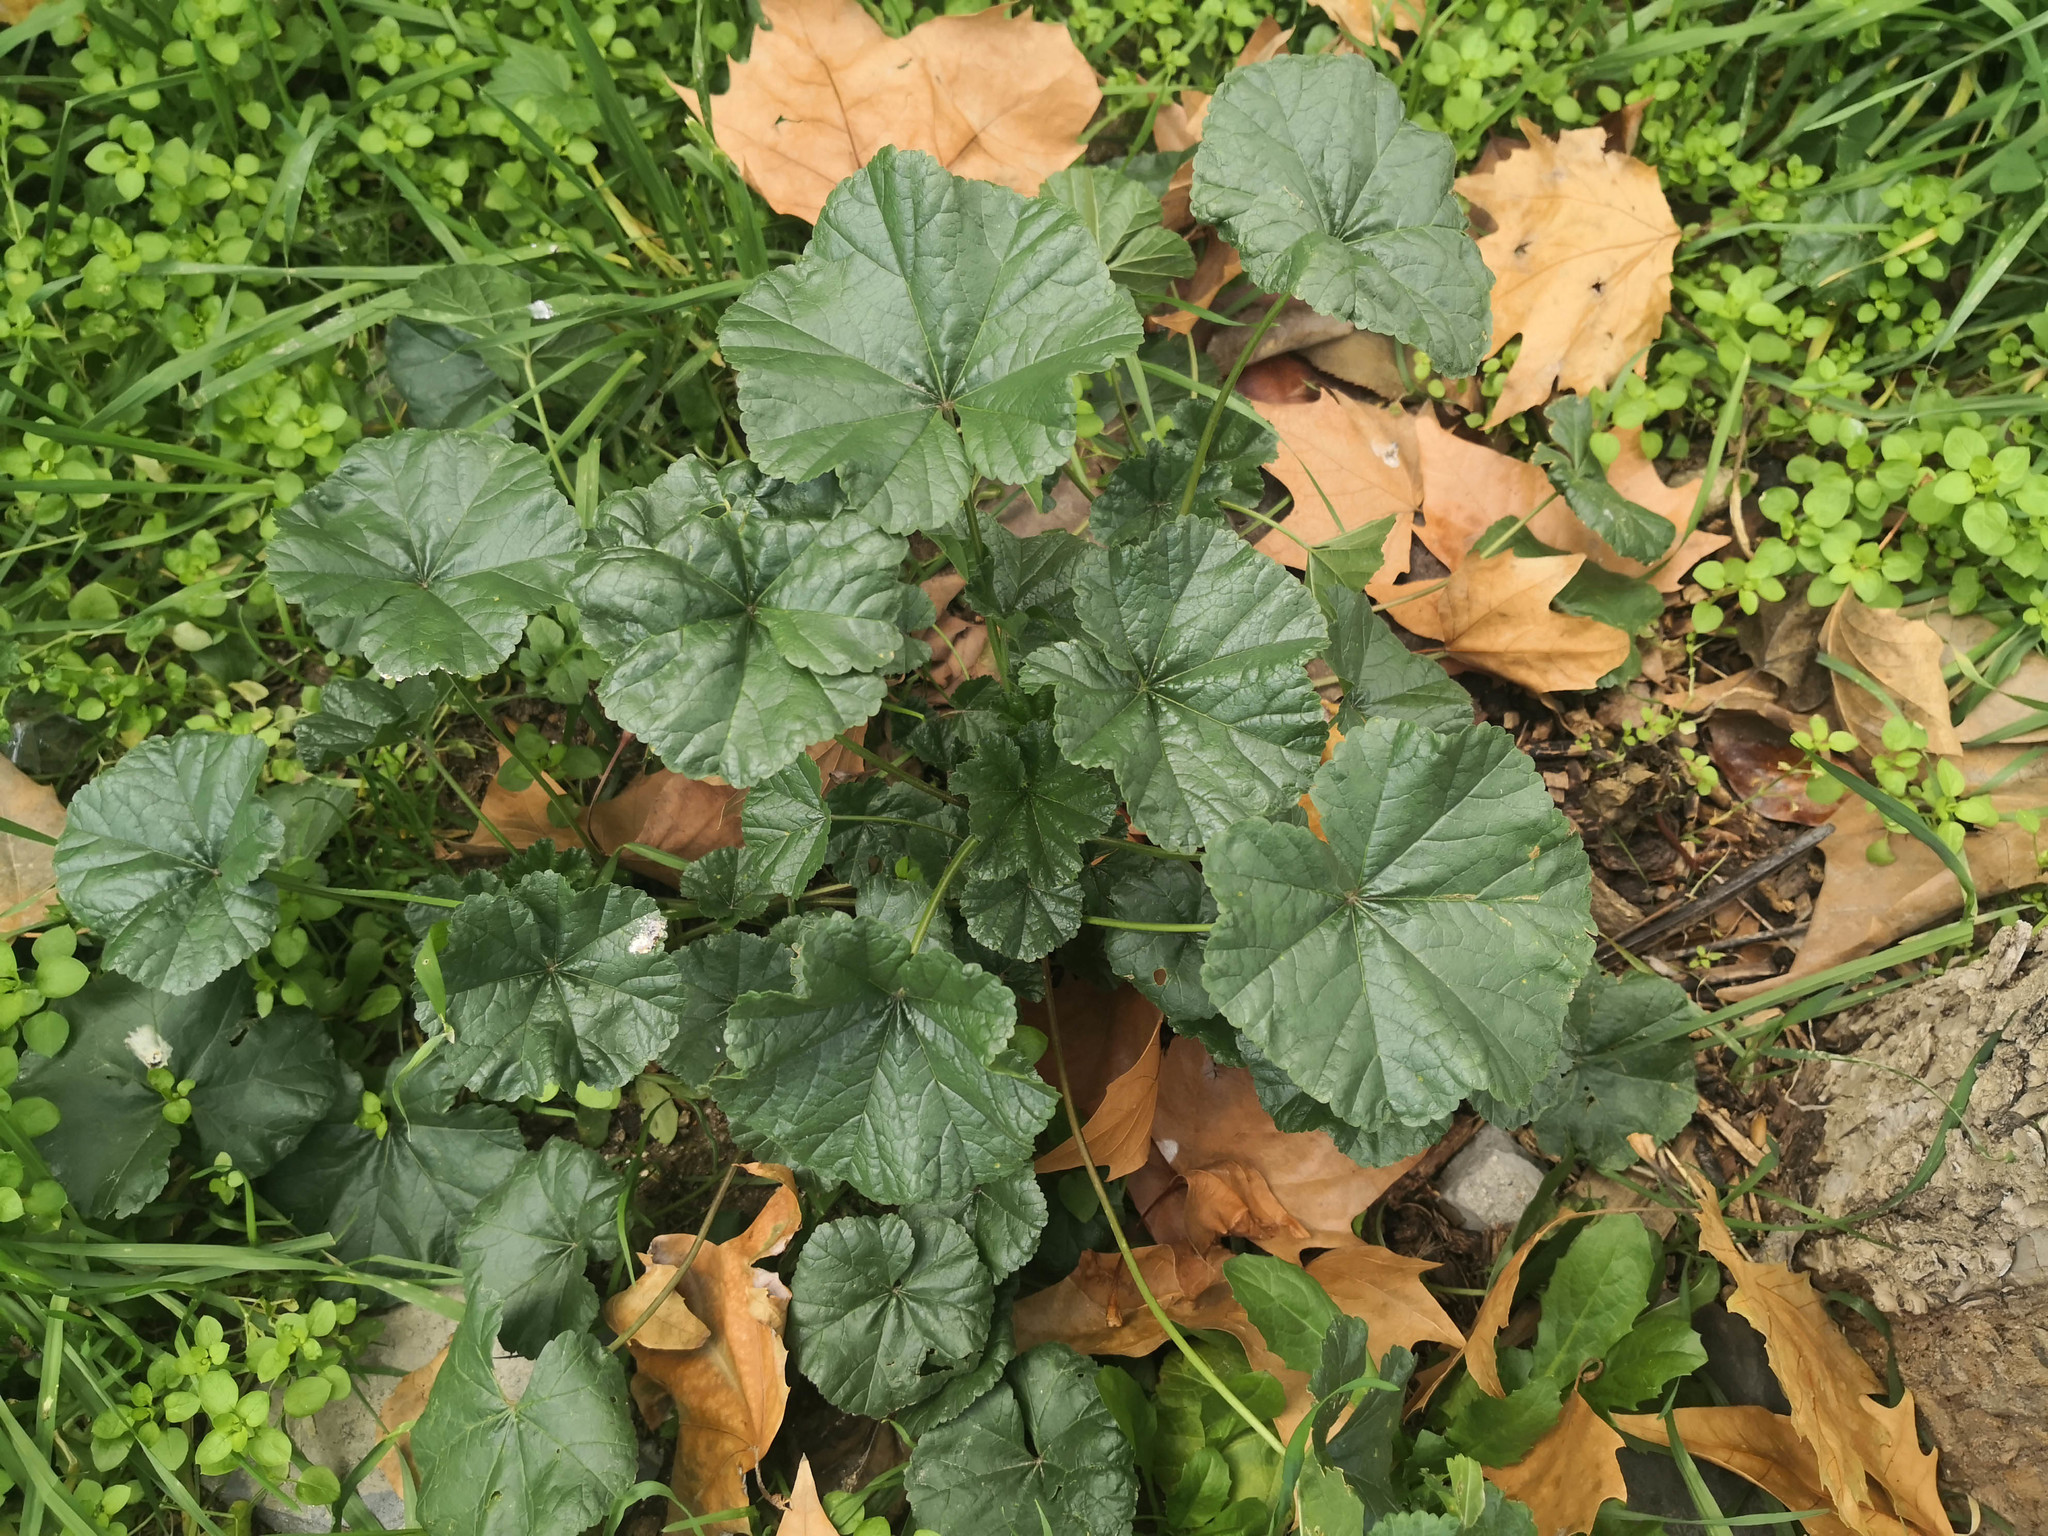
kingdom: Plantae
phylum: Tracheophyta
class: Magnoliopsida
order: Malvales
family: Malvaceae
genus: Malva
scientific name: Malva sylvestris
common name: Common mallow
